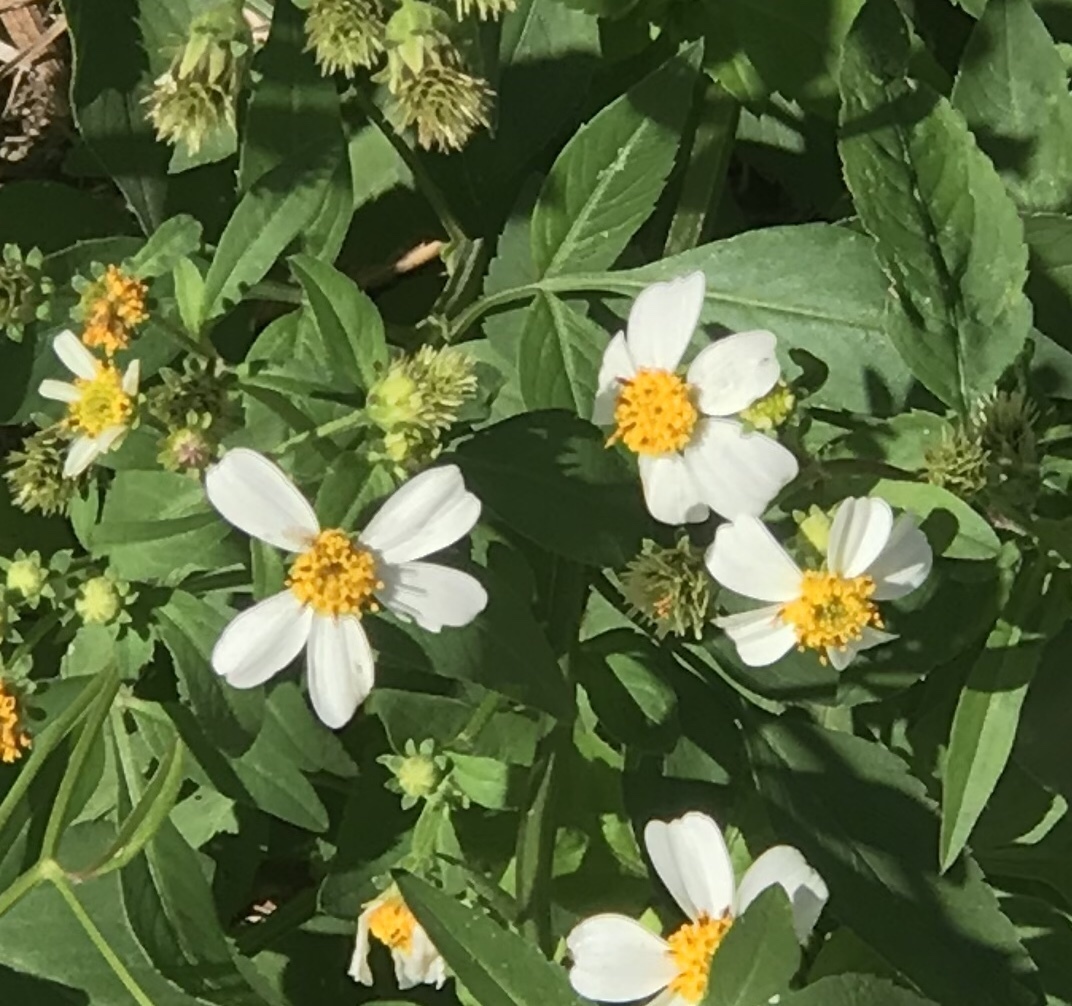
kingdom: Plantae
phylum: Tracheophyta
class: Magnoliopsida
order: Asterales
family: Asteraceae
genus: Bidens
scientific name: Bidens alba
